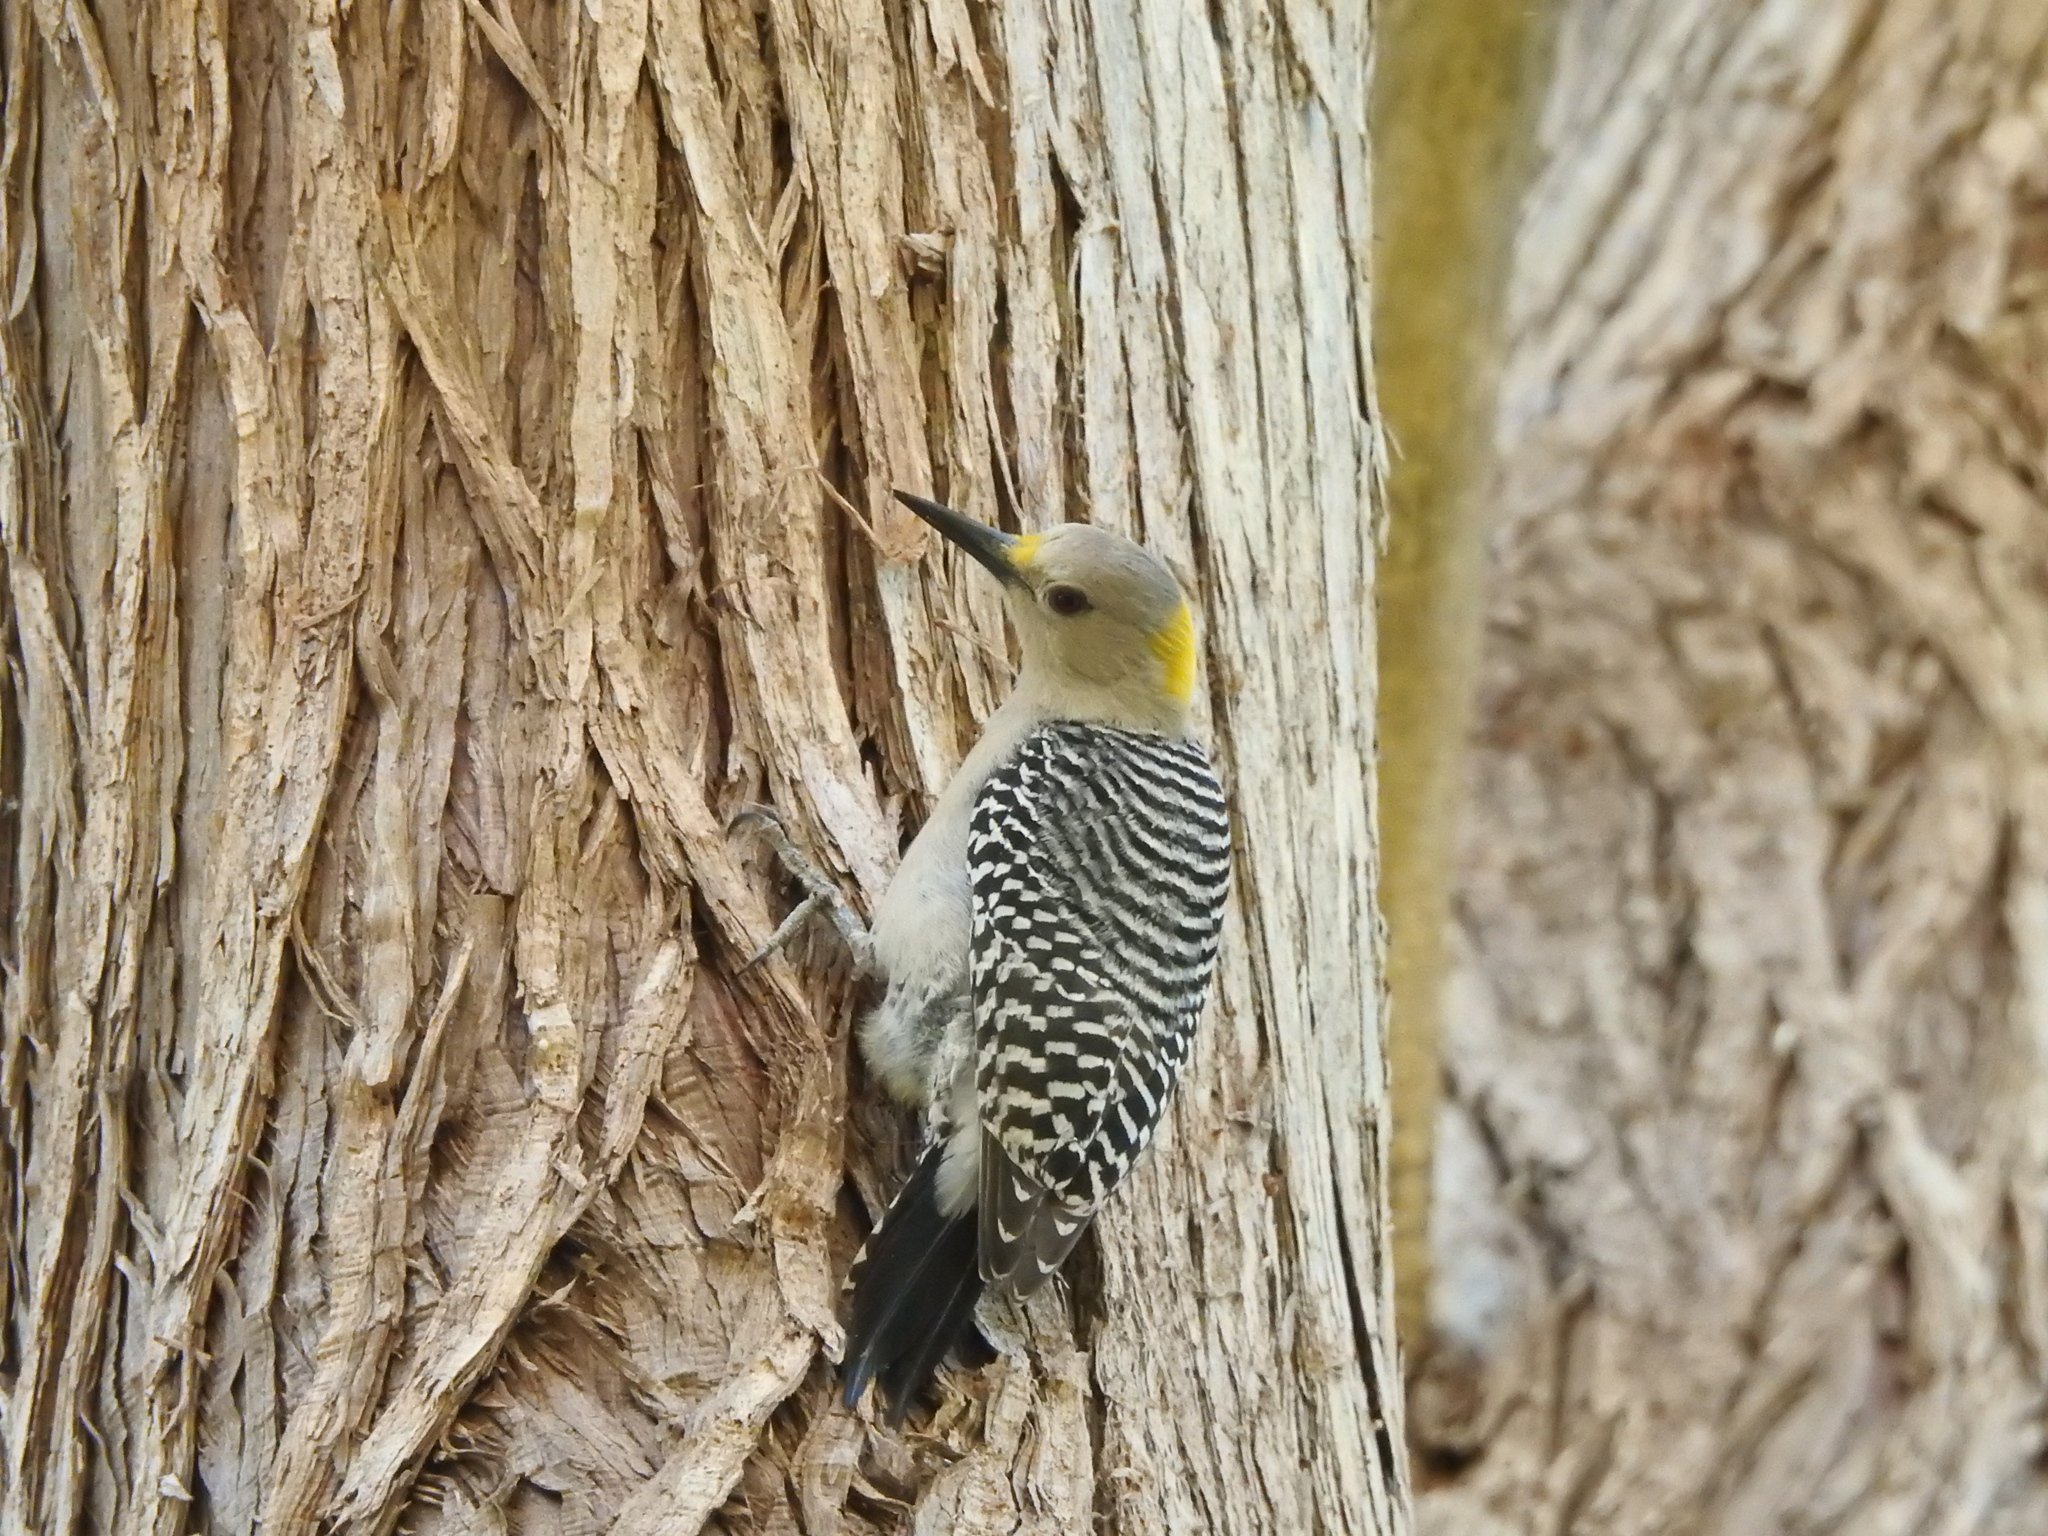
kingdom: Animalia
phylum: Chordata
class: Aves
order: Piciformes
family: Picidae
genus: Melanerpes
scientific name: Melanerpes aurifrons
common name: Golden-fronted woodpecker
